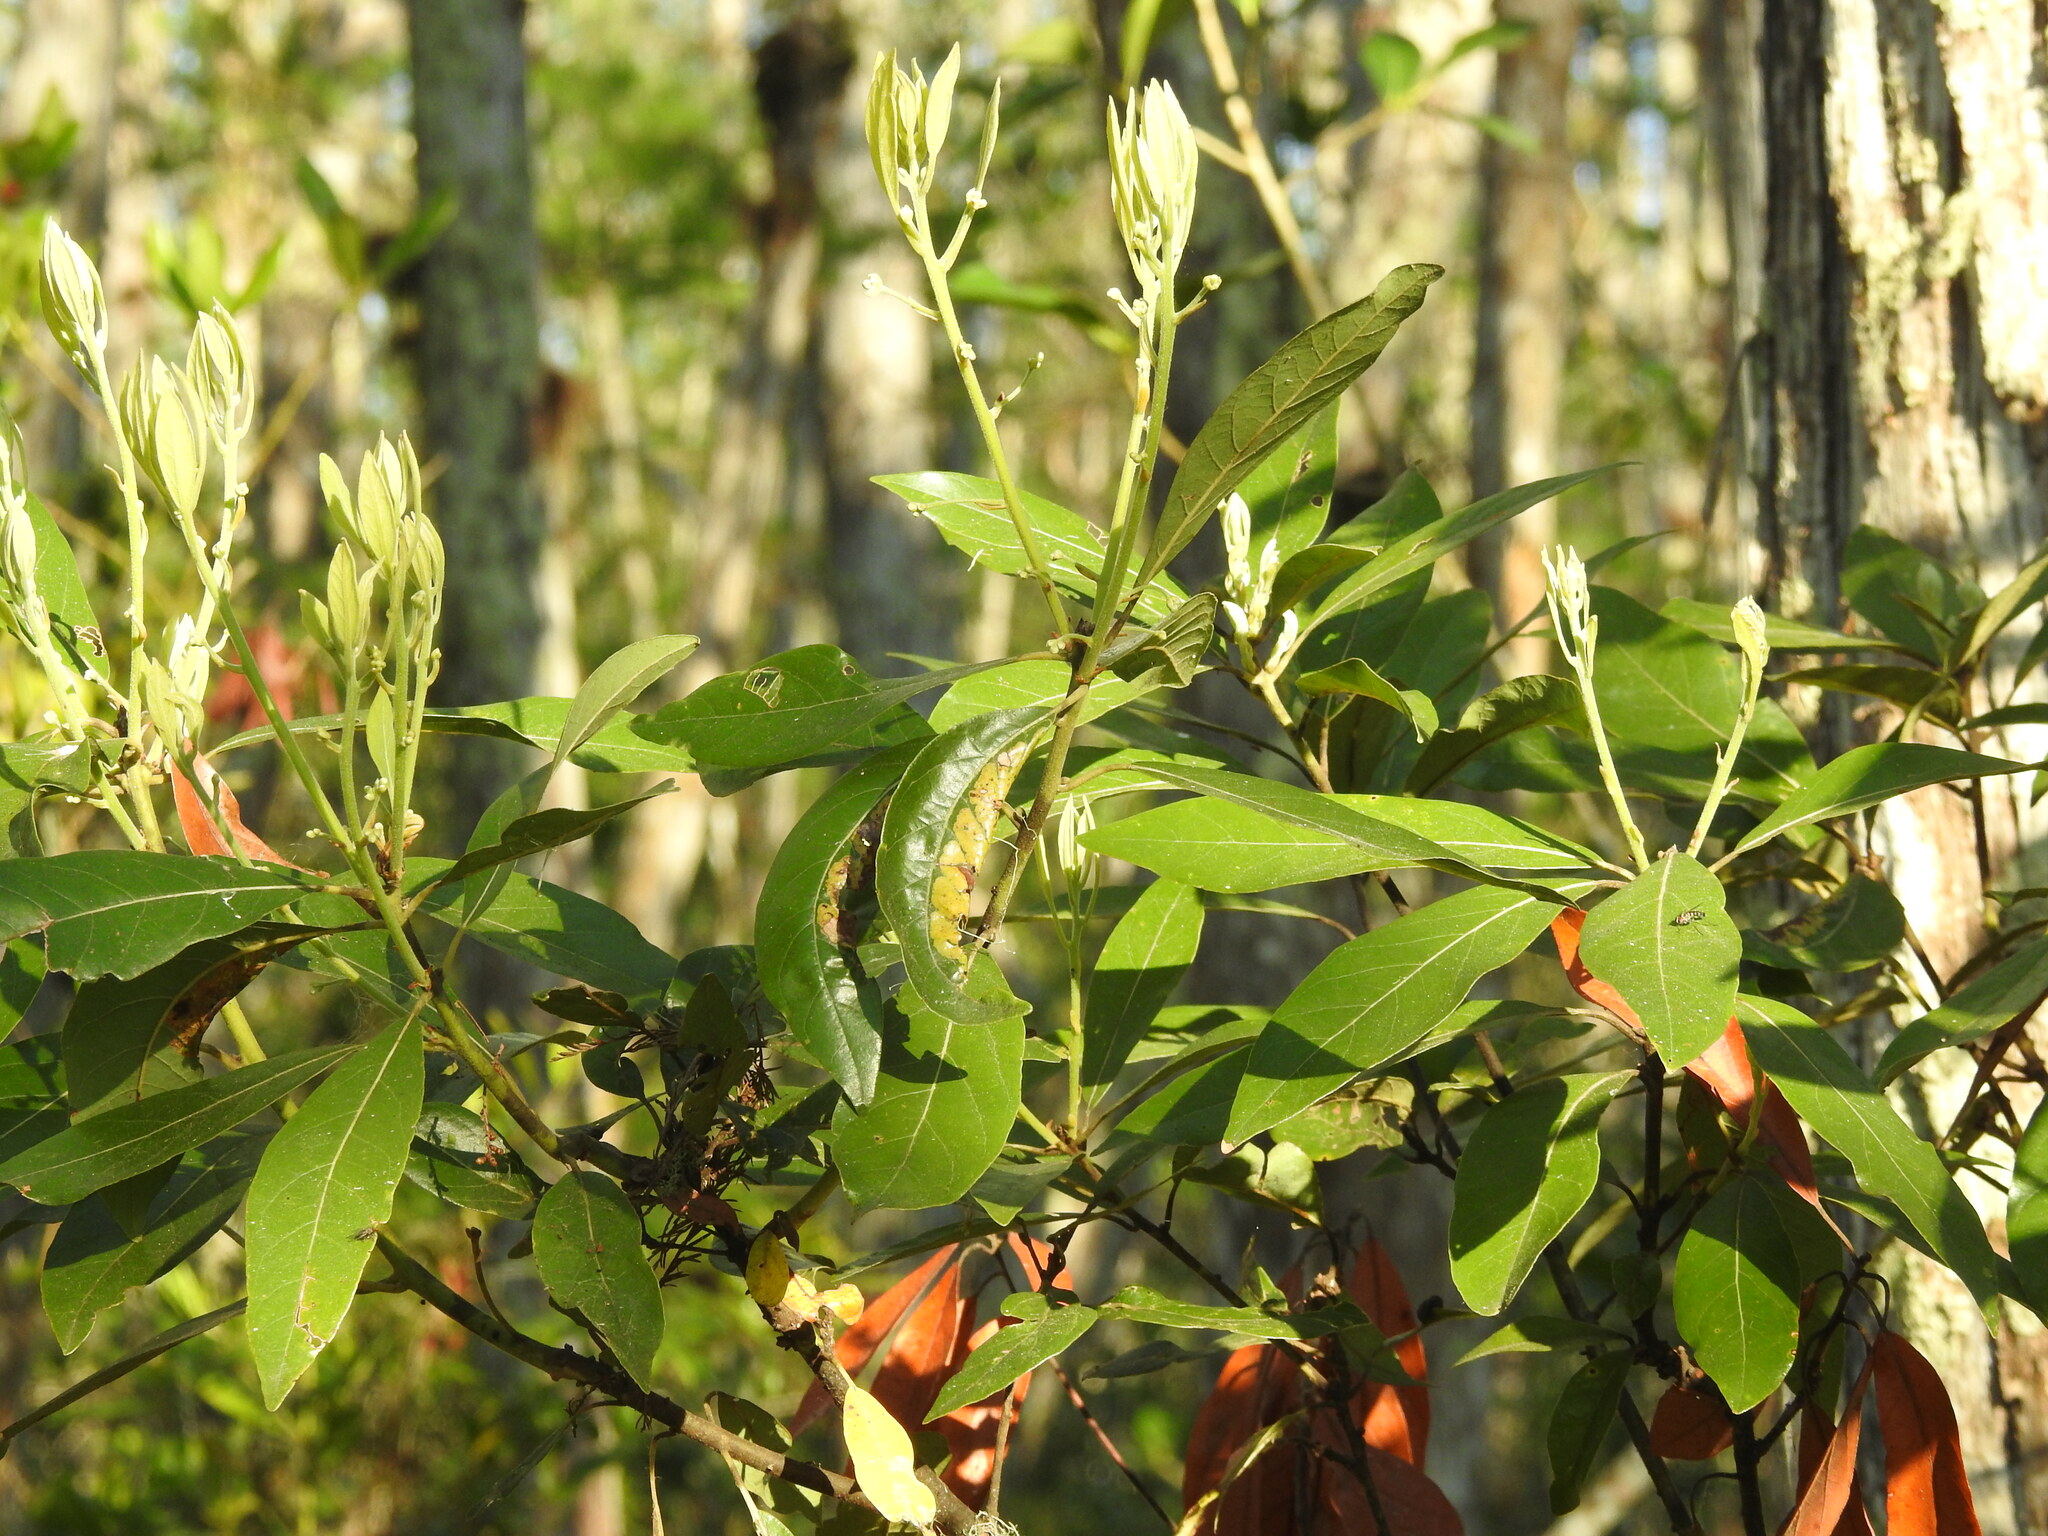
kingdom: Plantae
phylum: Tracheophyta
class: Magnoliopsida
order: Laurales
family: Lauraceae
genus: Persea
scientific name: Persea palustris
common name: Swampbay
